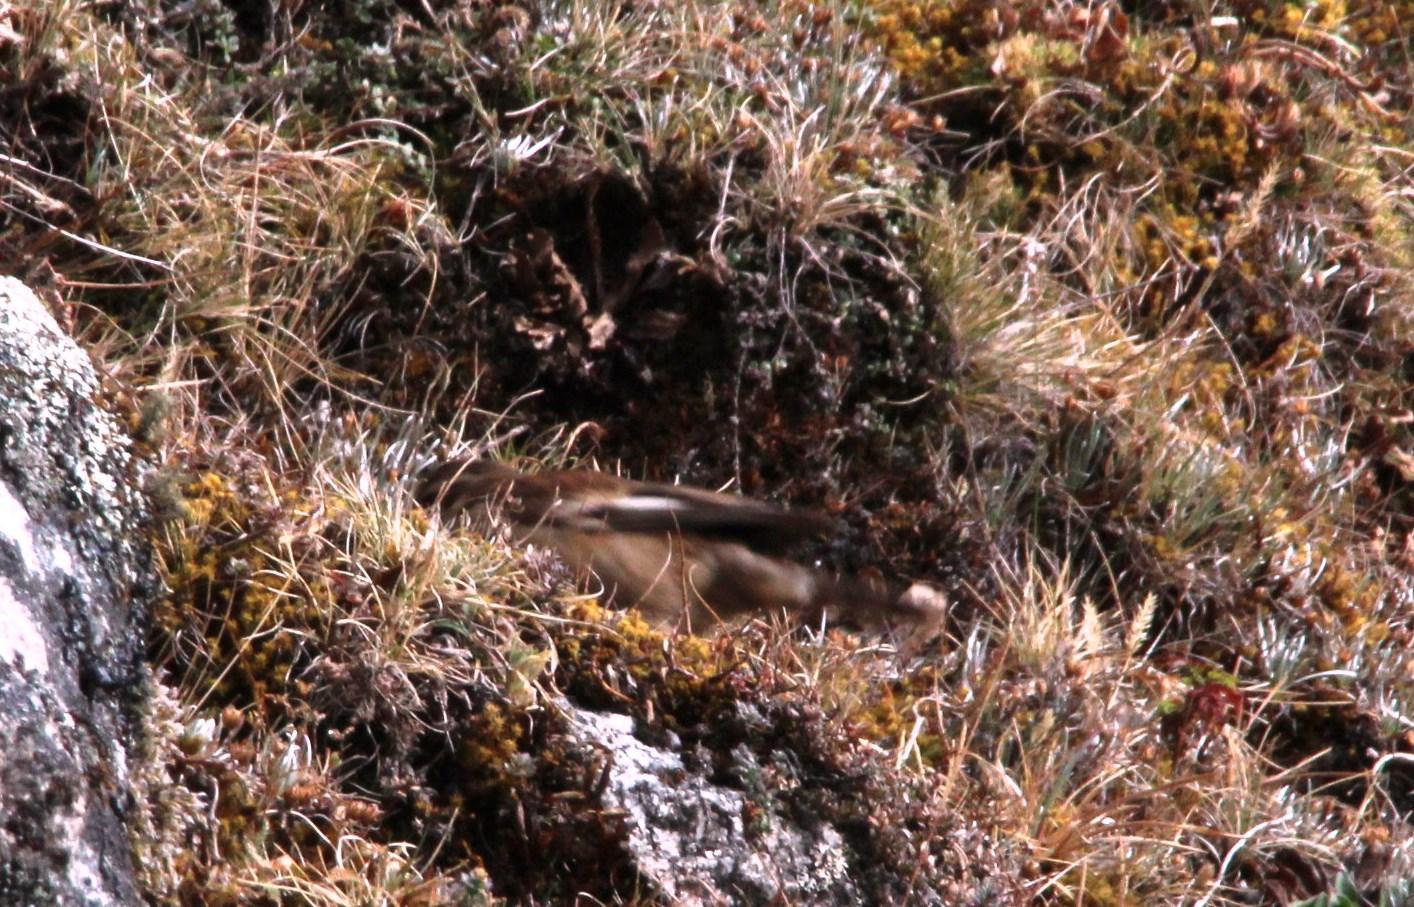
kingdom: Animalia
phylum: Chordata
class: Aves
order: Passeriformes
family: Furnariidae
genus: Cinclodes
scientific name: Cinclodes fuscus
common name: Buff-winged cinclodes
